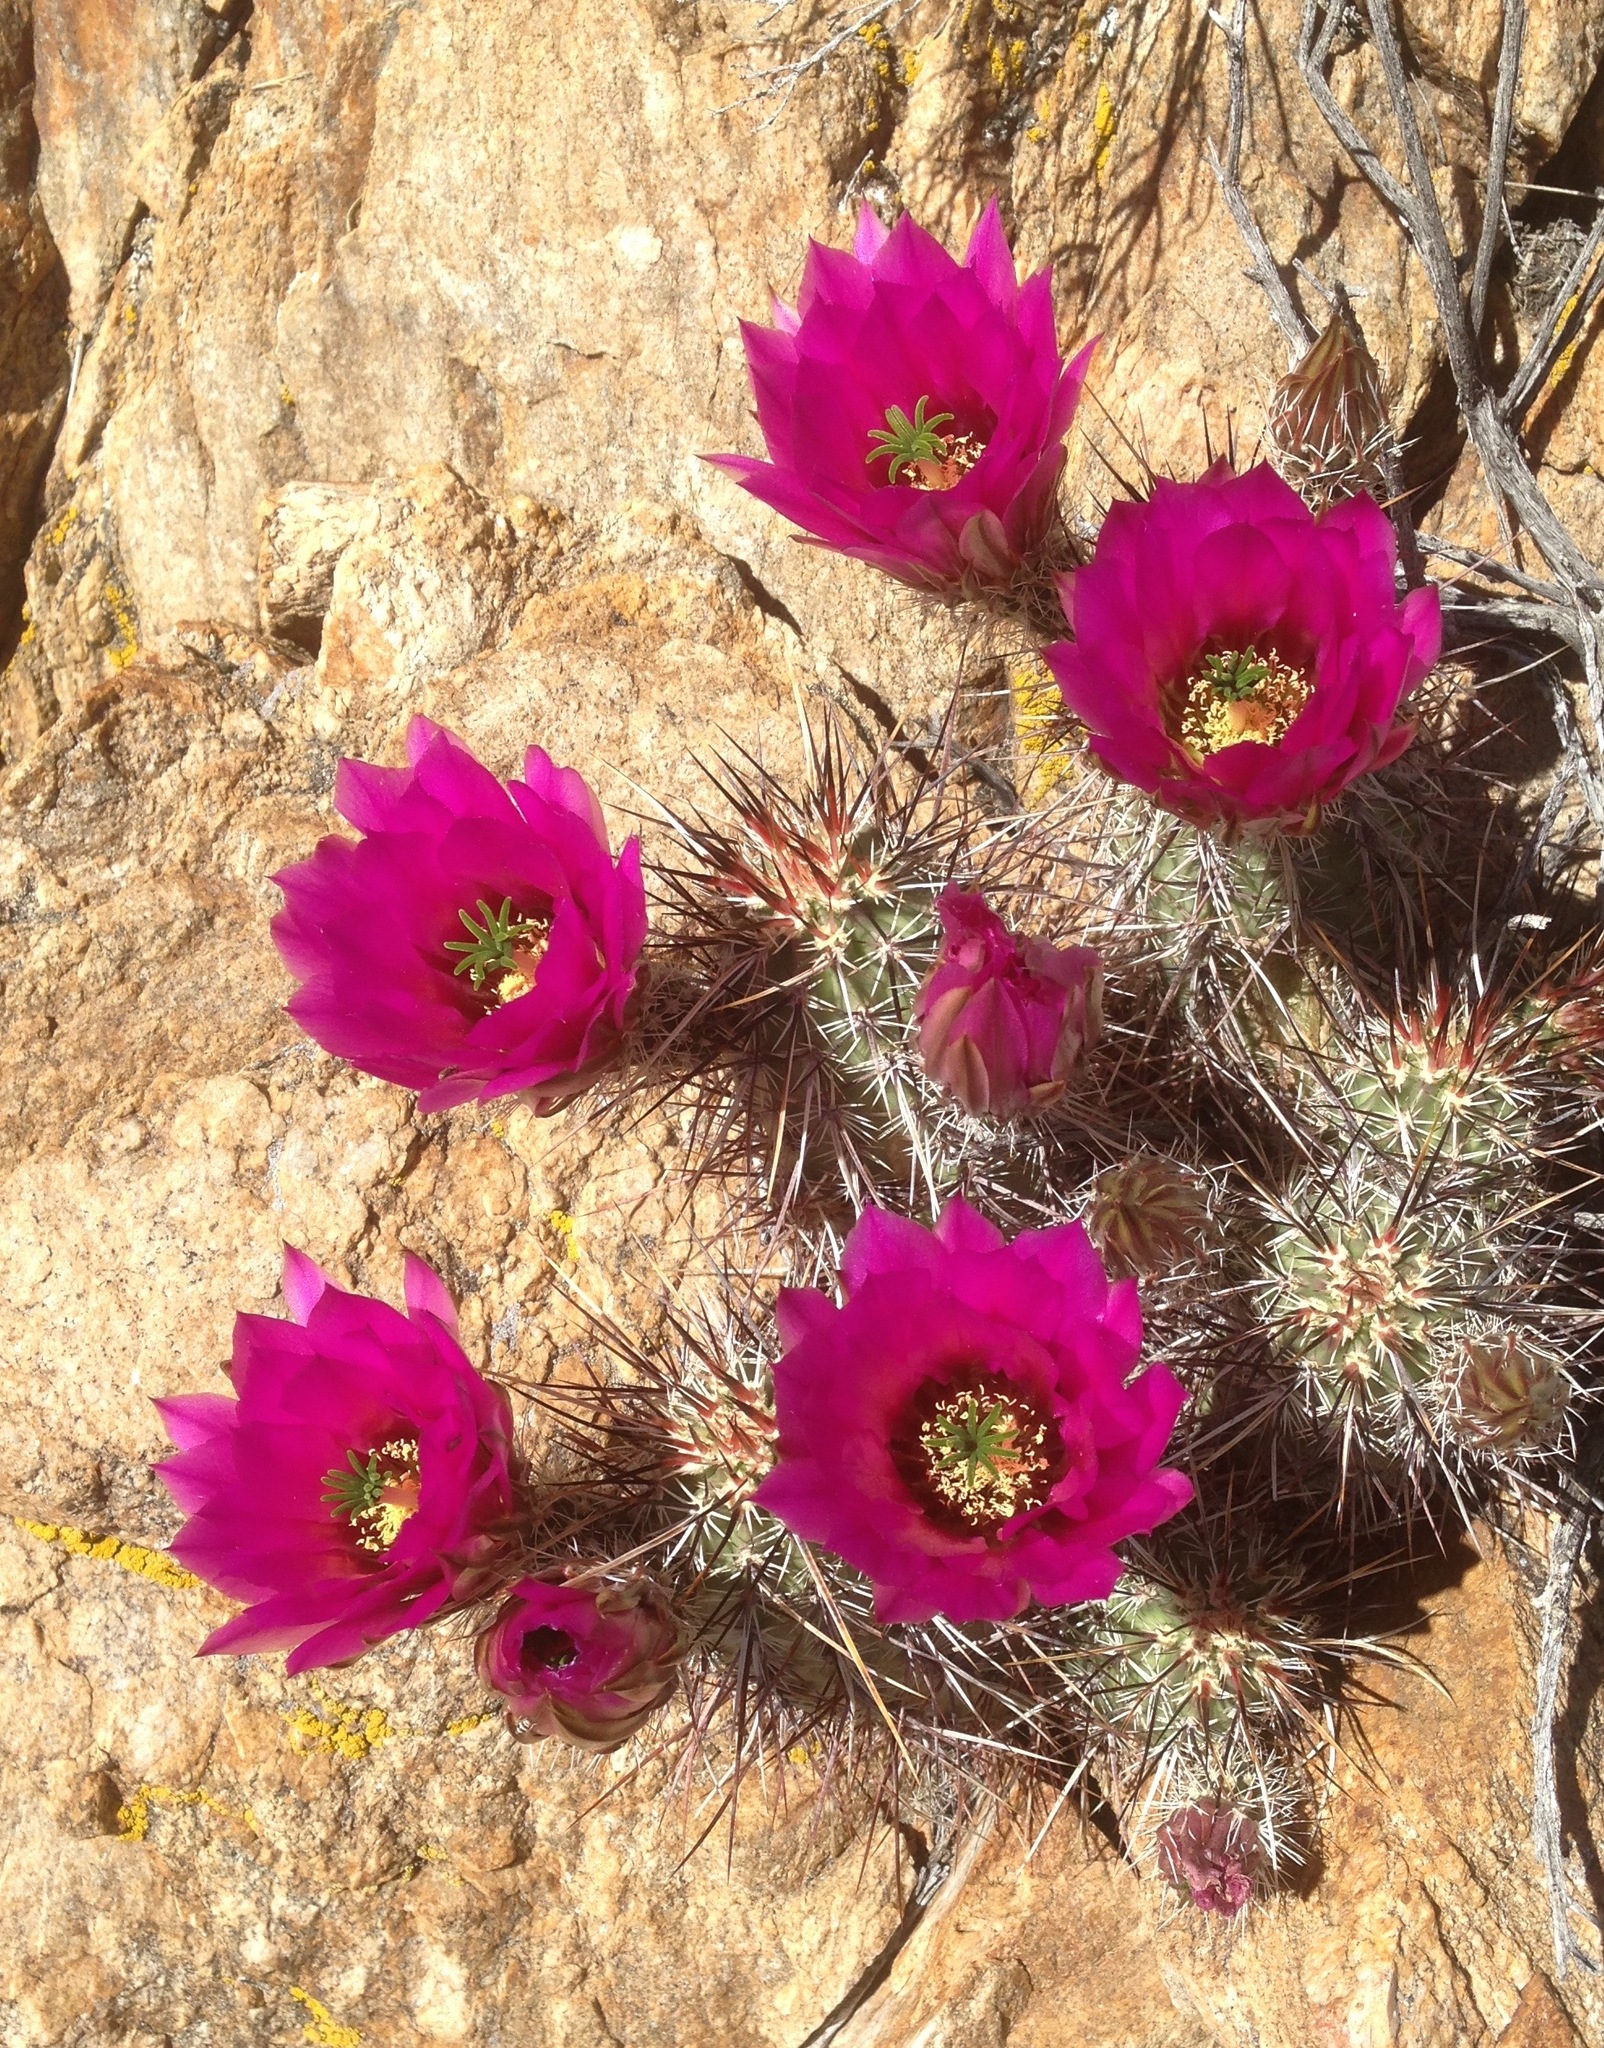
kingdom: Plantae
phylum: Tracheophyta
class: Magnoliopsida
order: Caryophyllales
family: Cactaceae
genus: Echinocereus
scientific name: Echinocereus engelmannii
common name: Engelmann's hedgehog cactus
